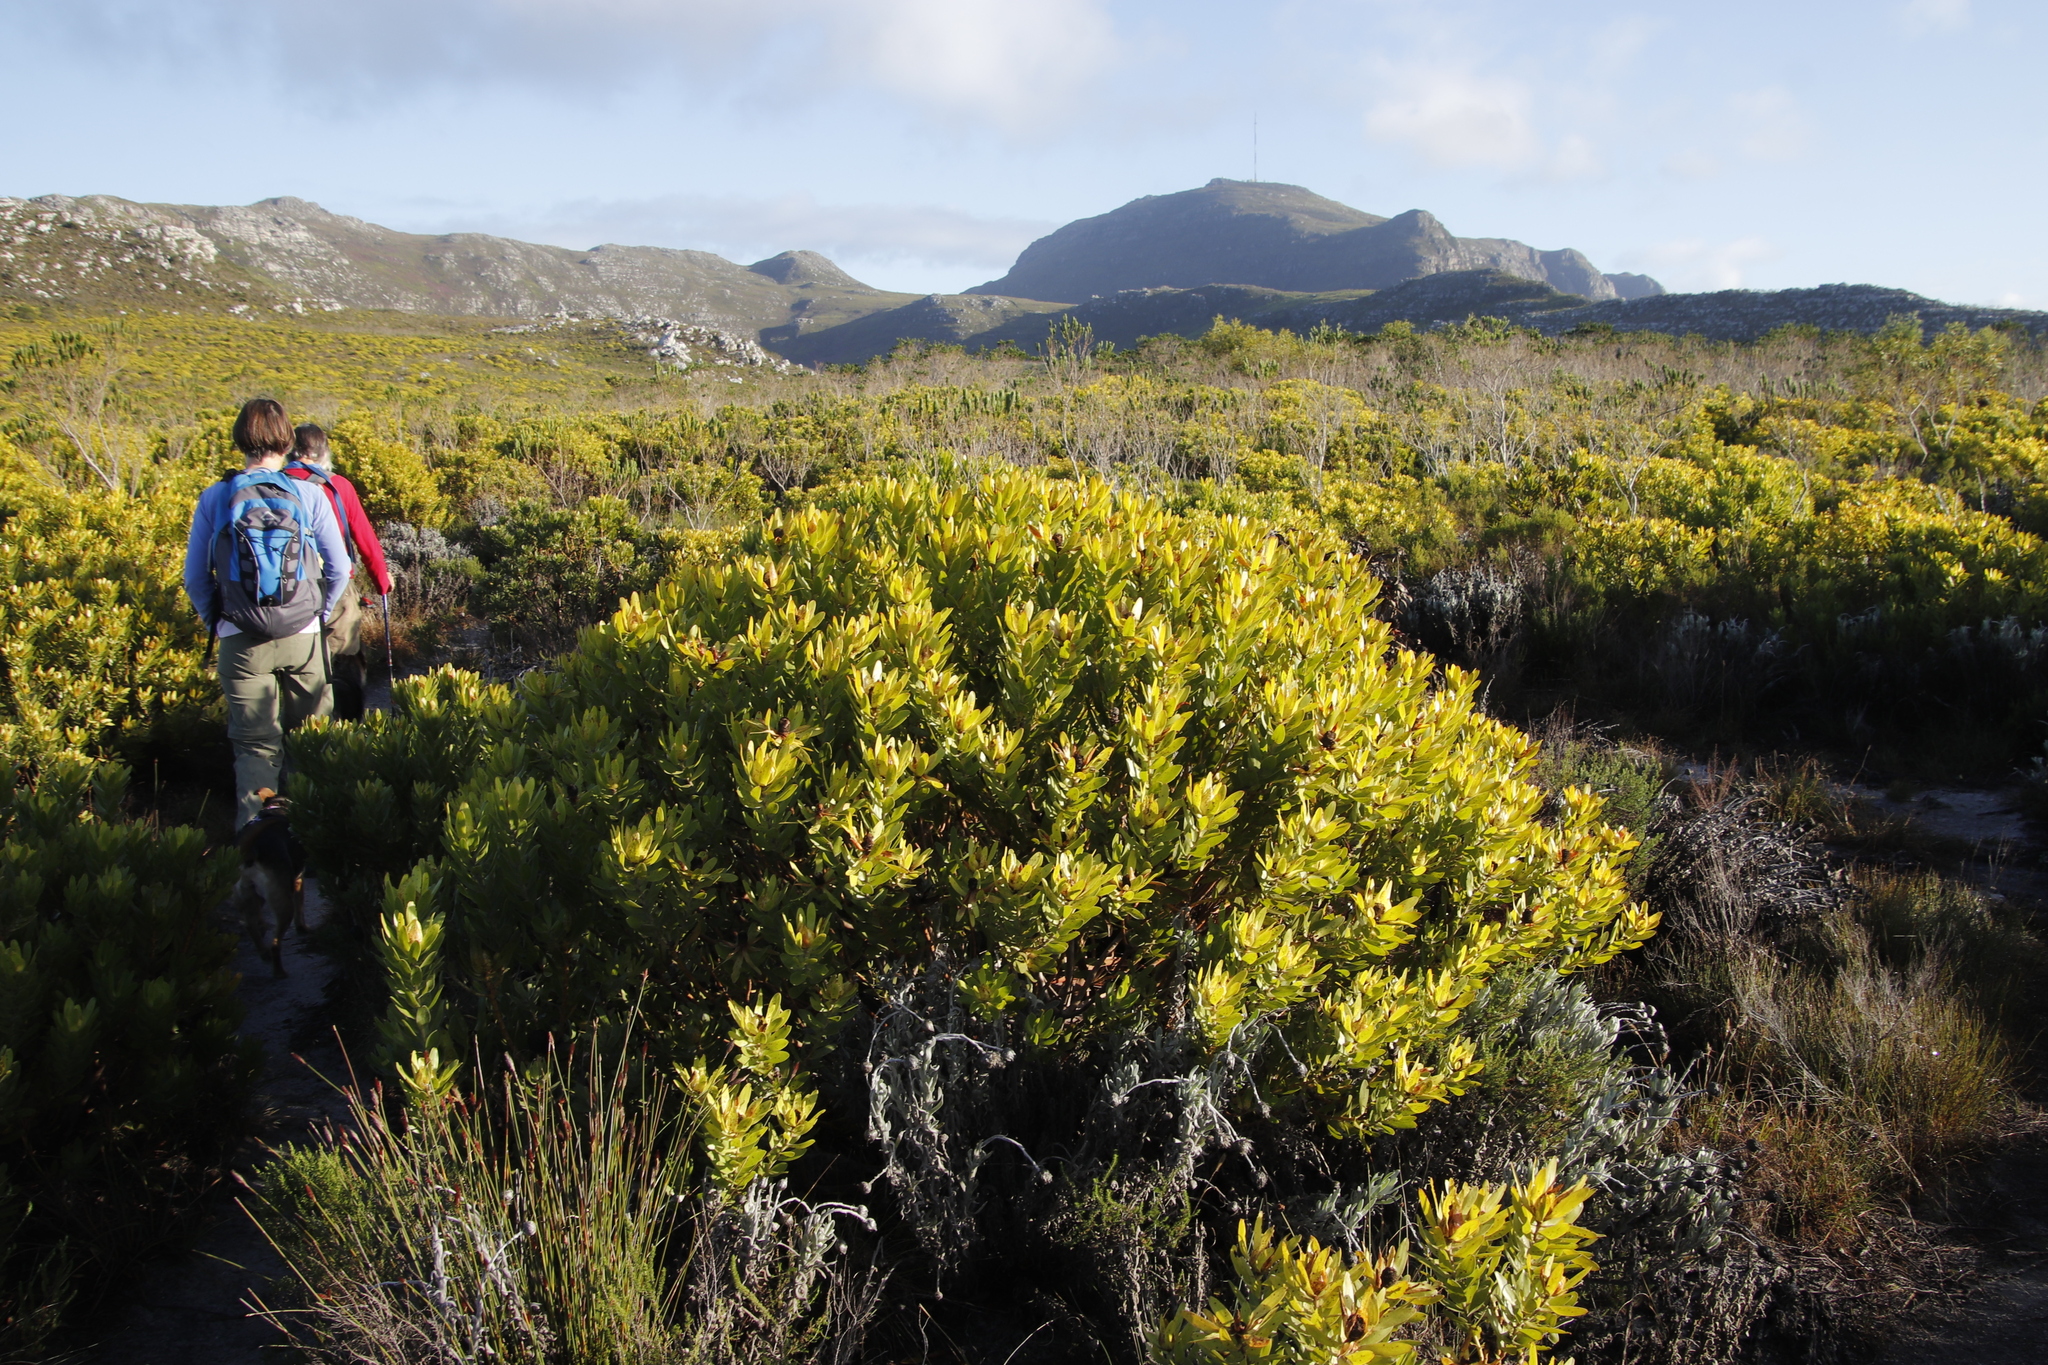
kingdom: Plantae
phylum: Tracheophyta
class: Magnoliopsida
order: Proteales
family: Proteaceae
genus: Leucadendron
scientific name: Leucadendron laureolum
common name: Golden sunshinebush
